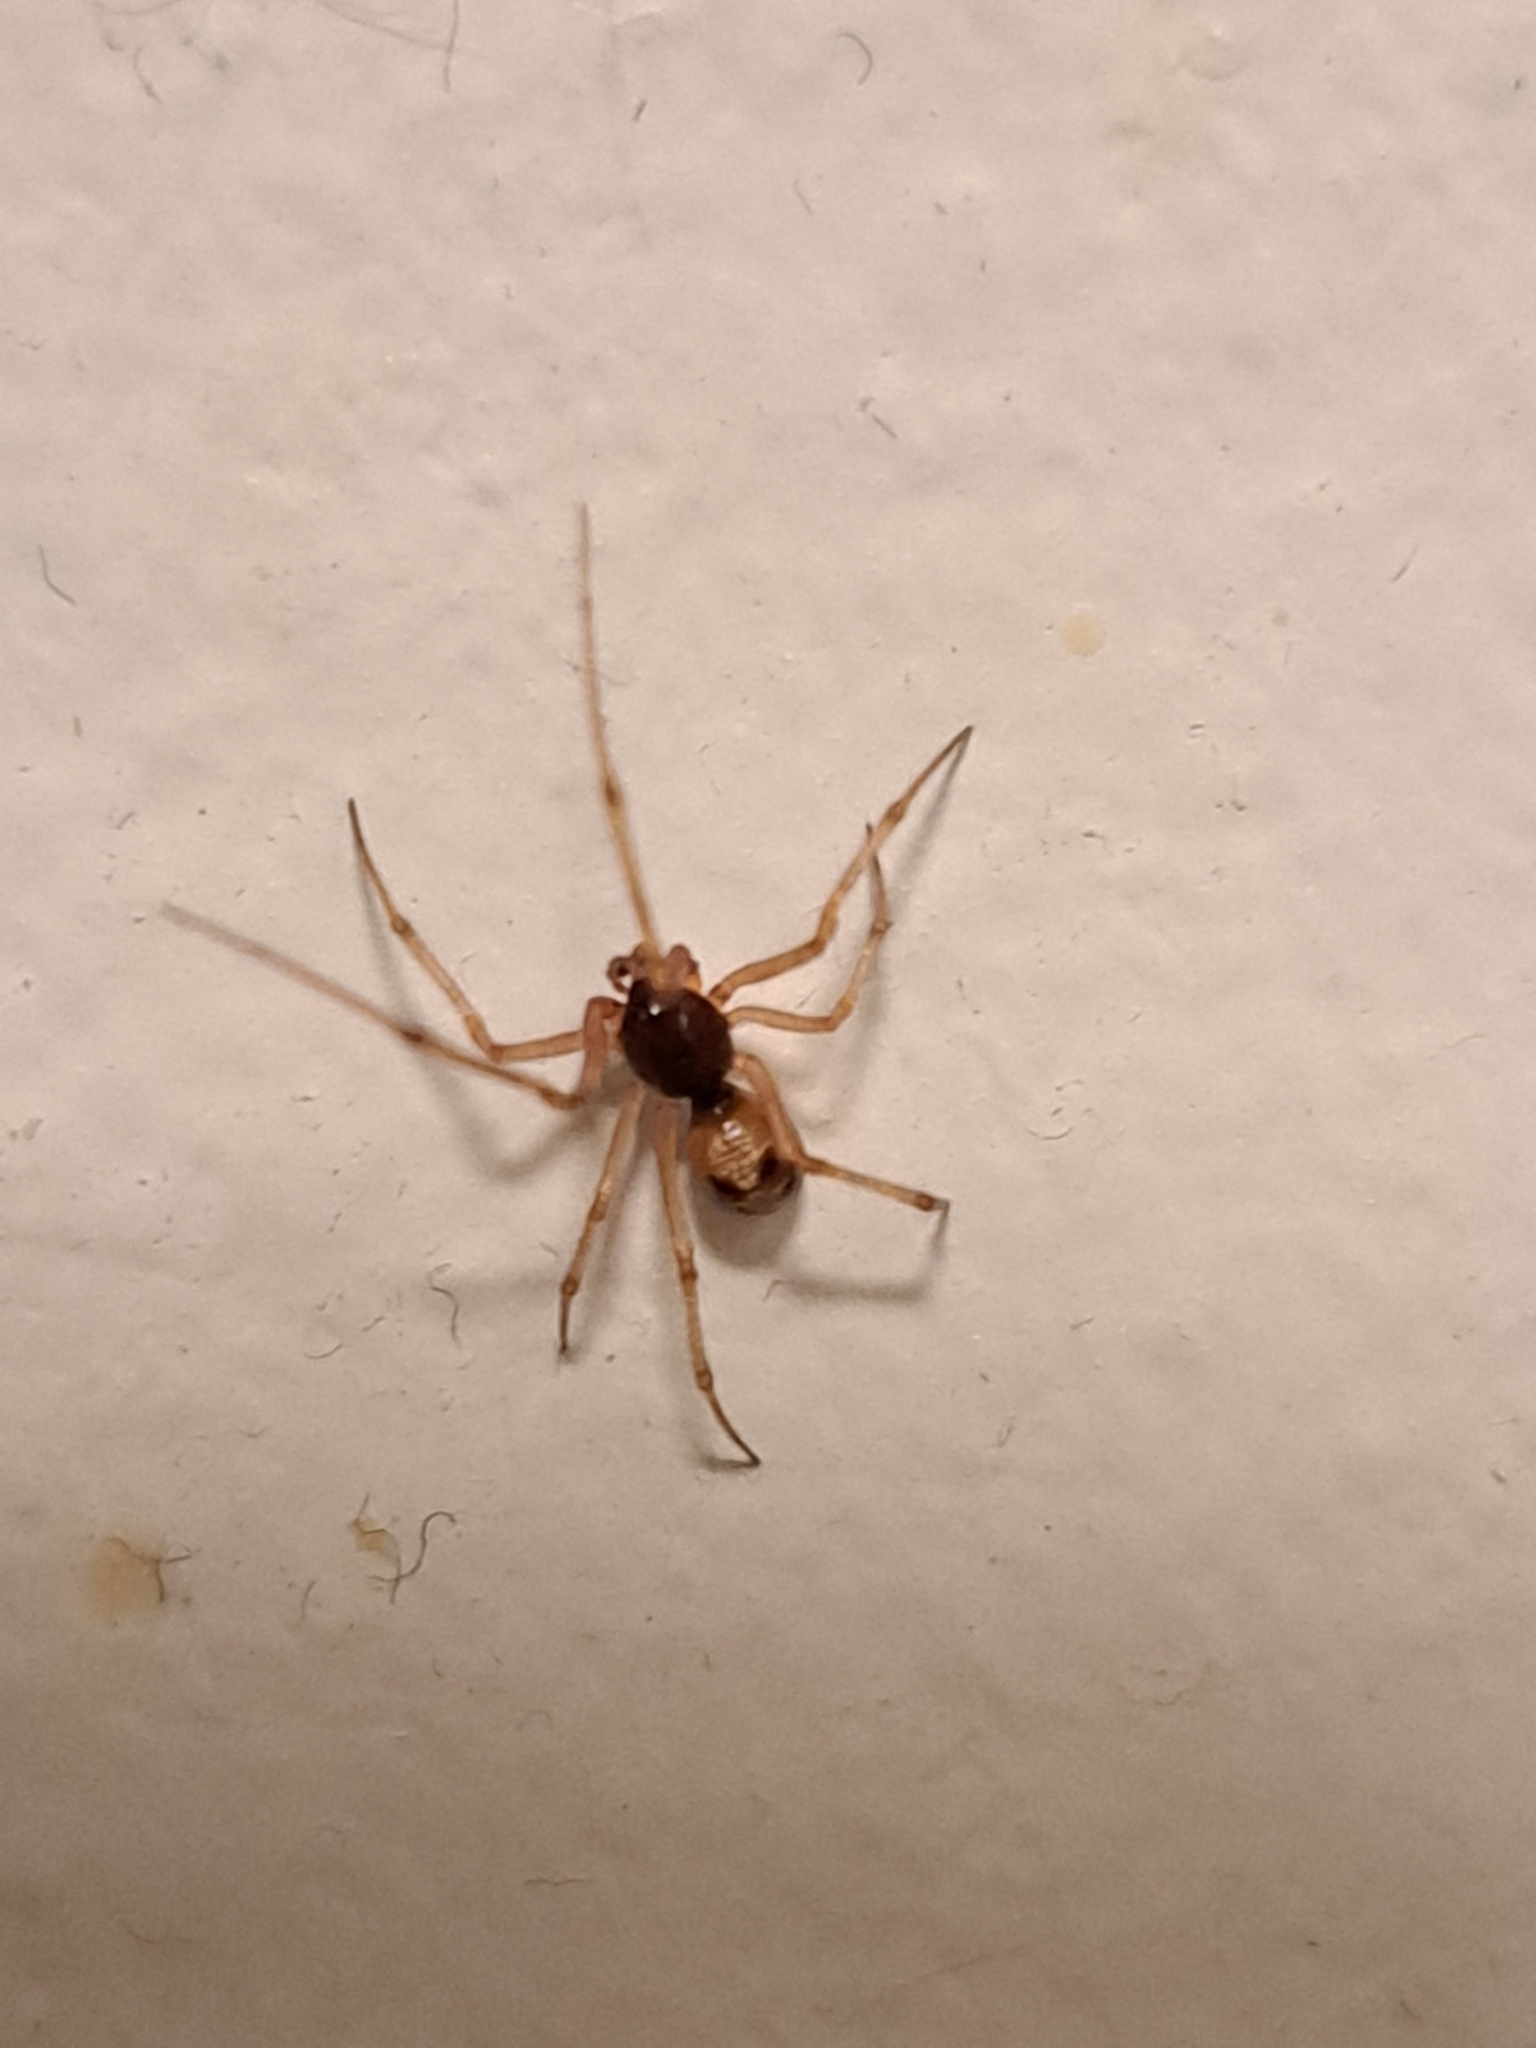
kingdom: Animalia
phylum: Arthropoda
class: Arachnida
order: Araneae
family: Theridiidae
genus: Steatoda
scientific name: Steatoda triangulosa
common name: Triangulate bud spider
